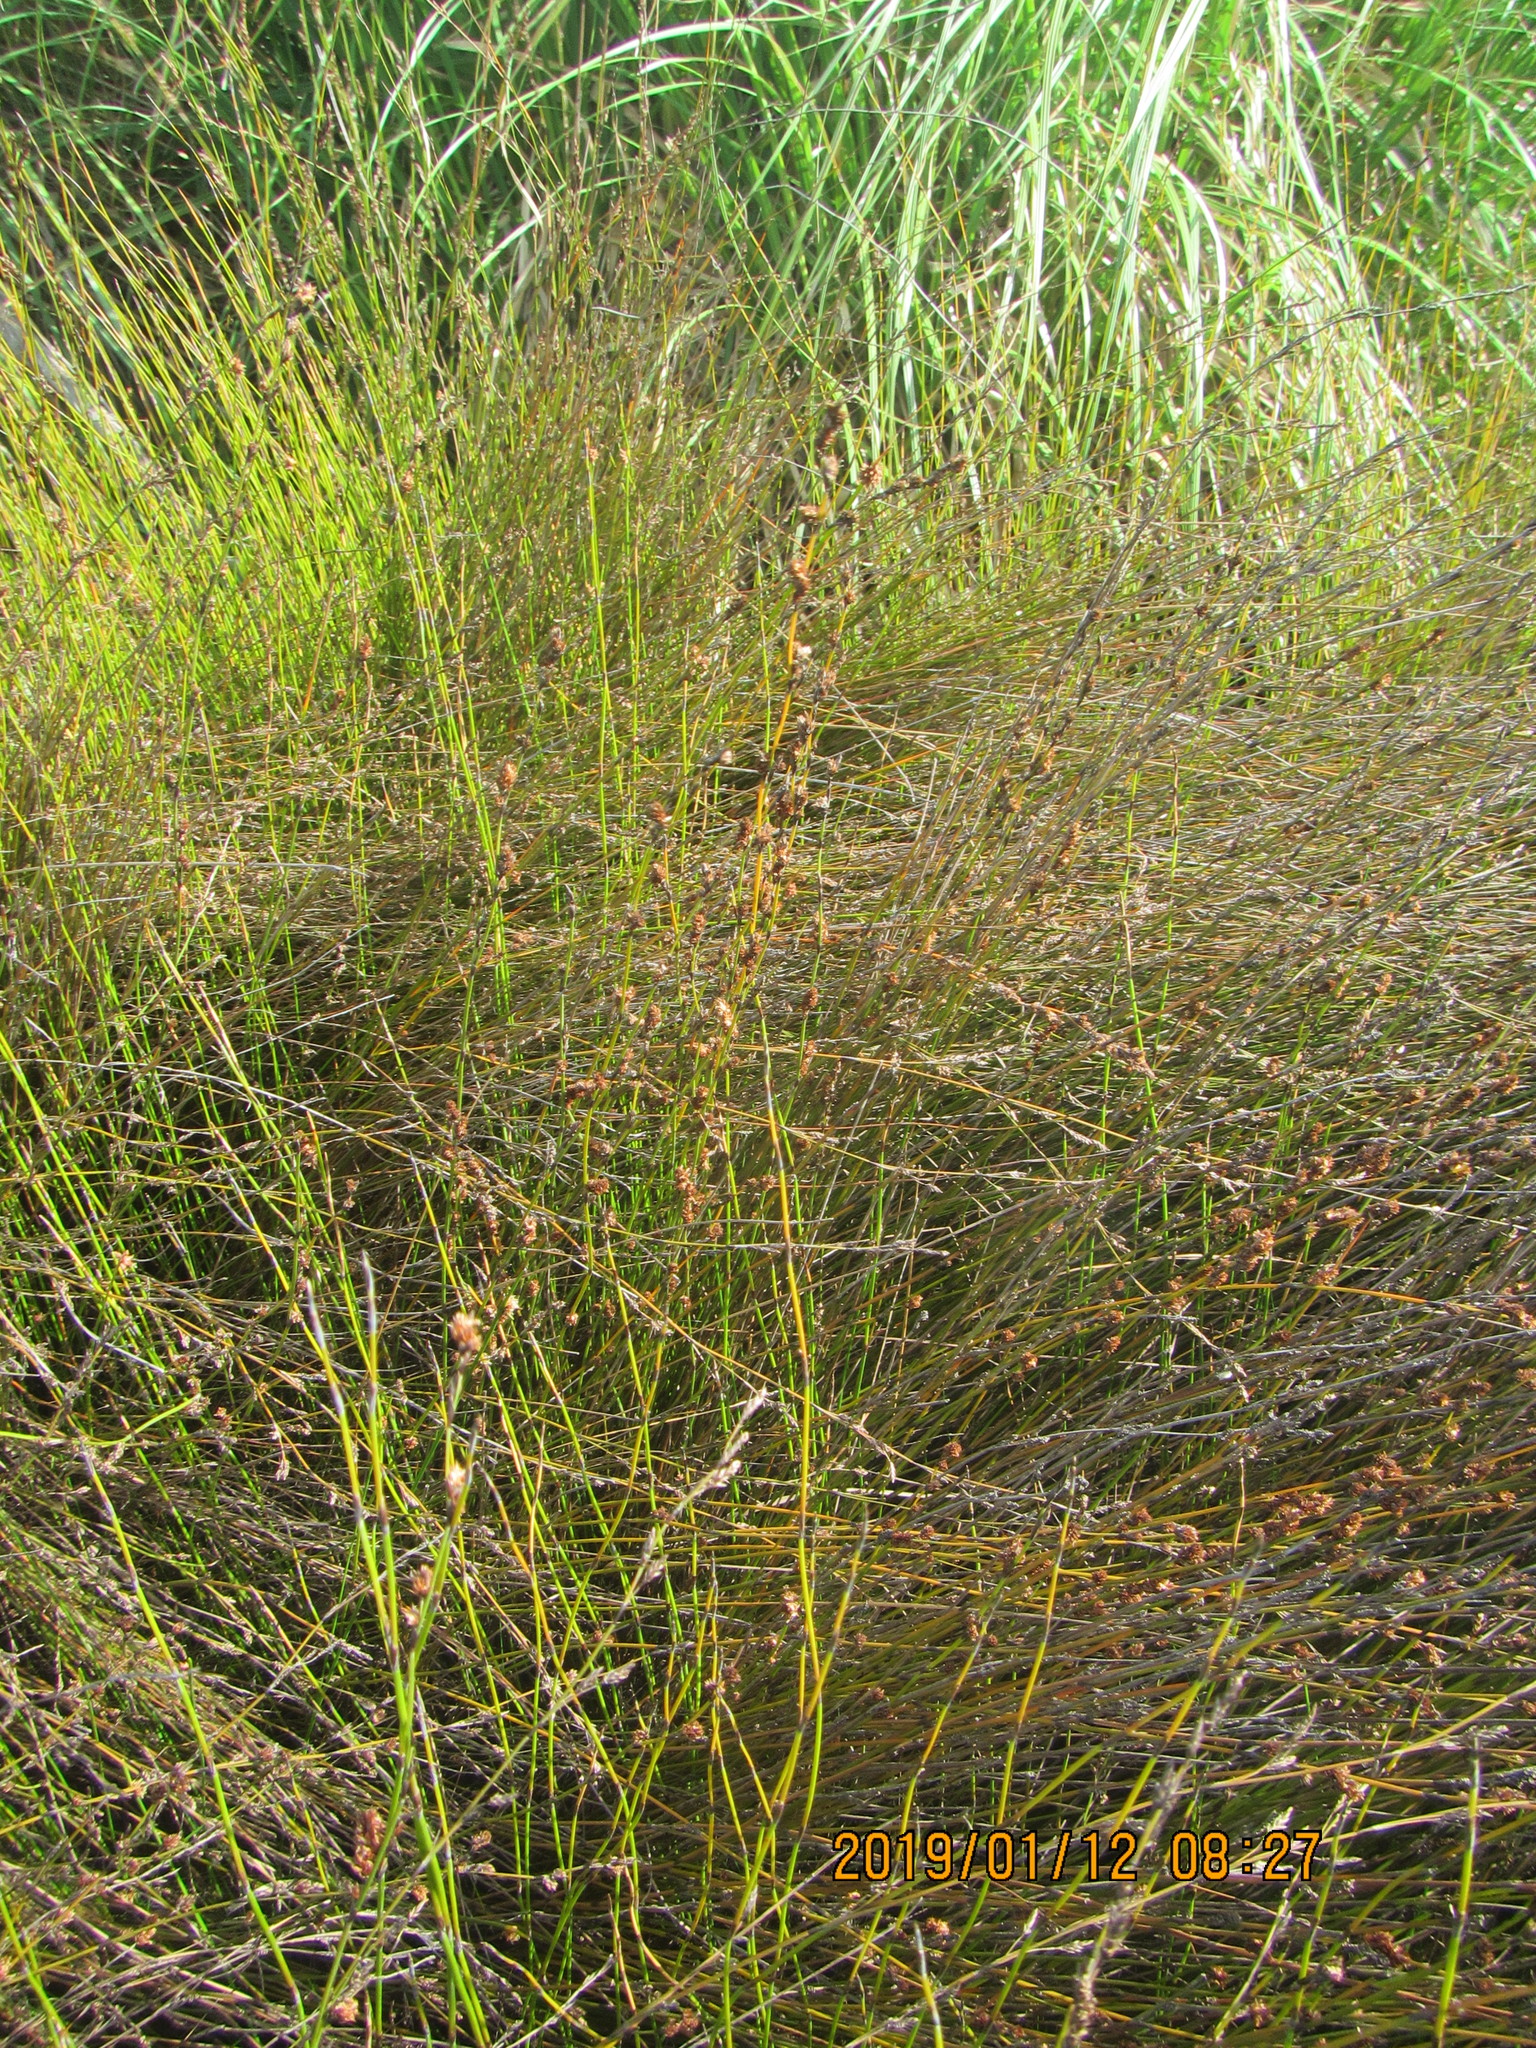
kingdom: Plantae
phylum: Tracheophyta
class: Liliopsida
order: Poales
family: Restionaceae
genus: Apodasmia
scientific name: Apodasmia similis
